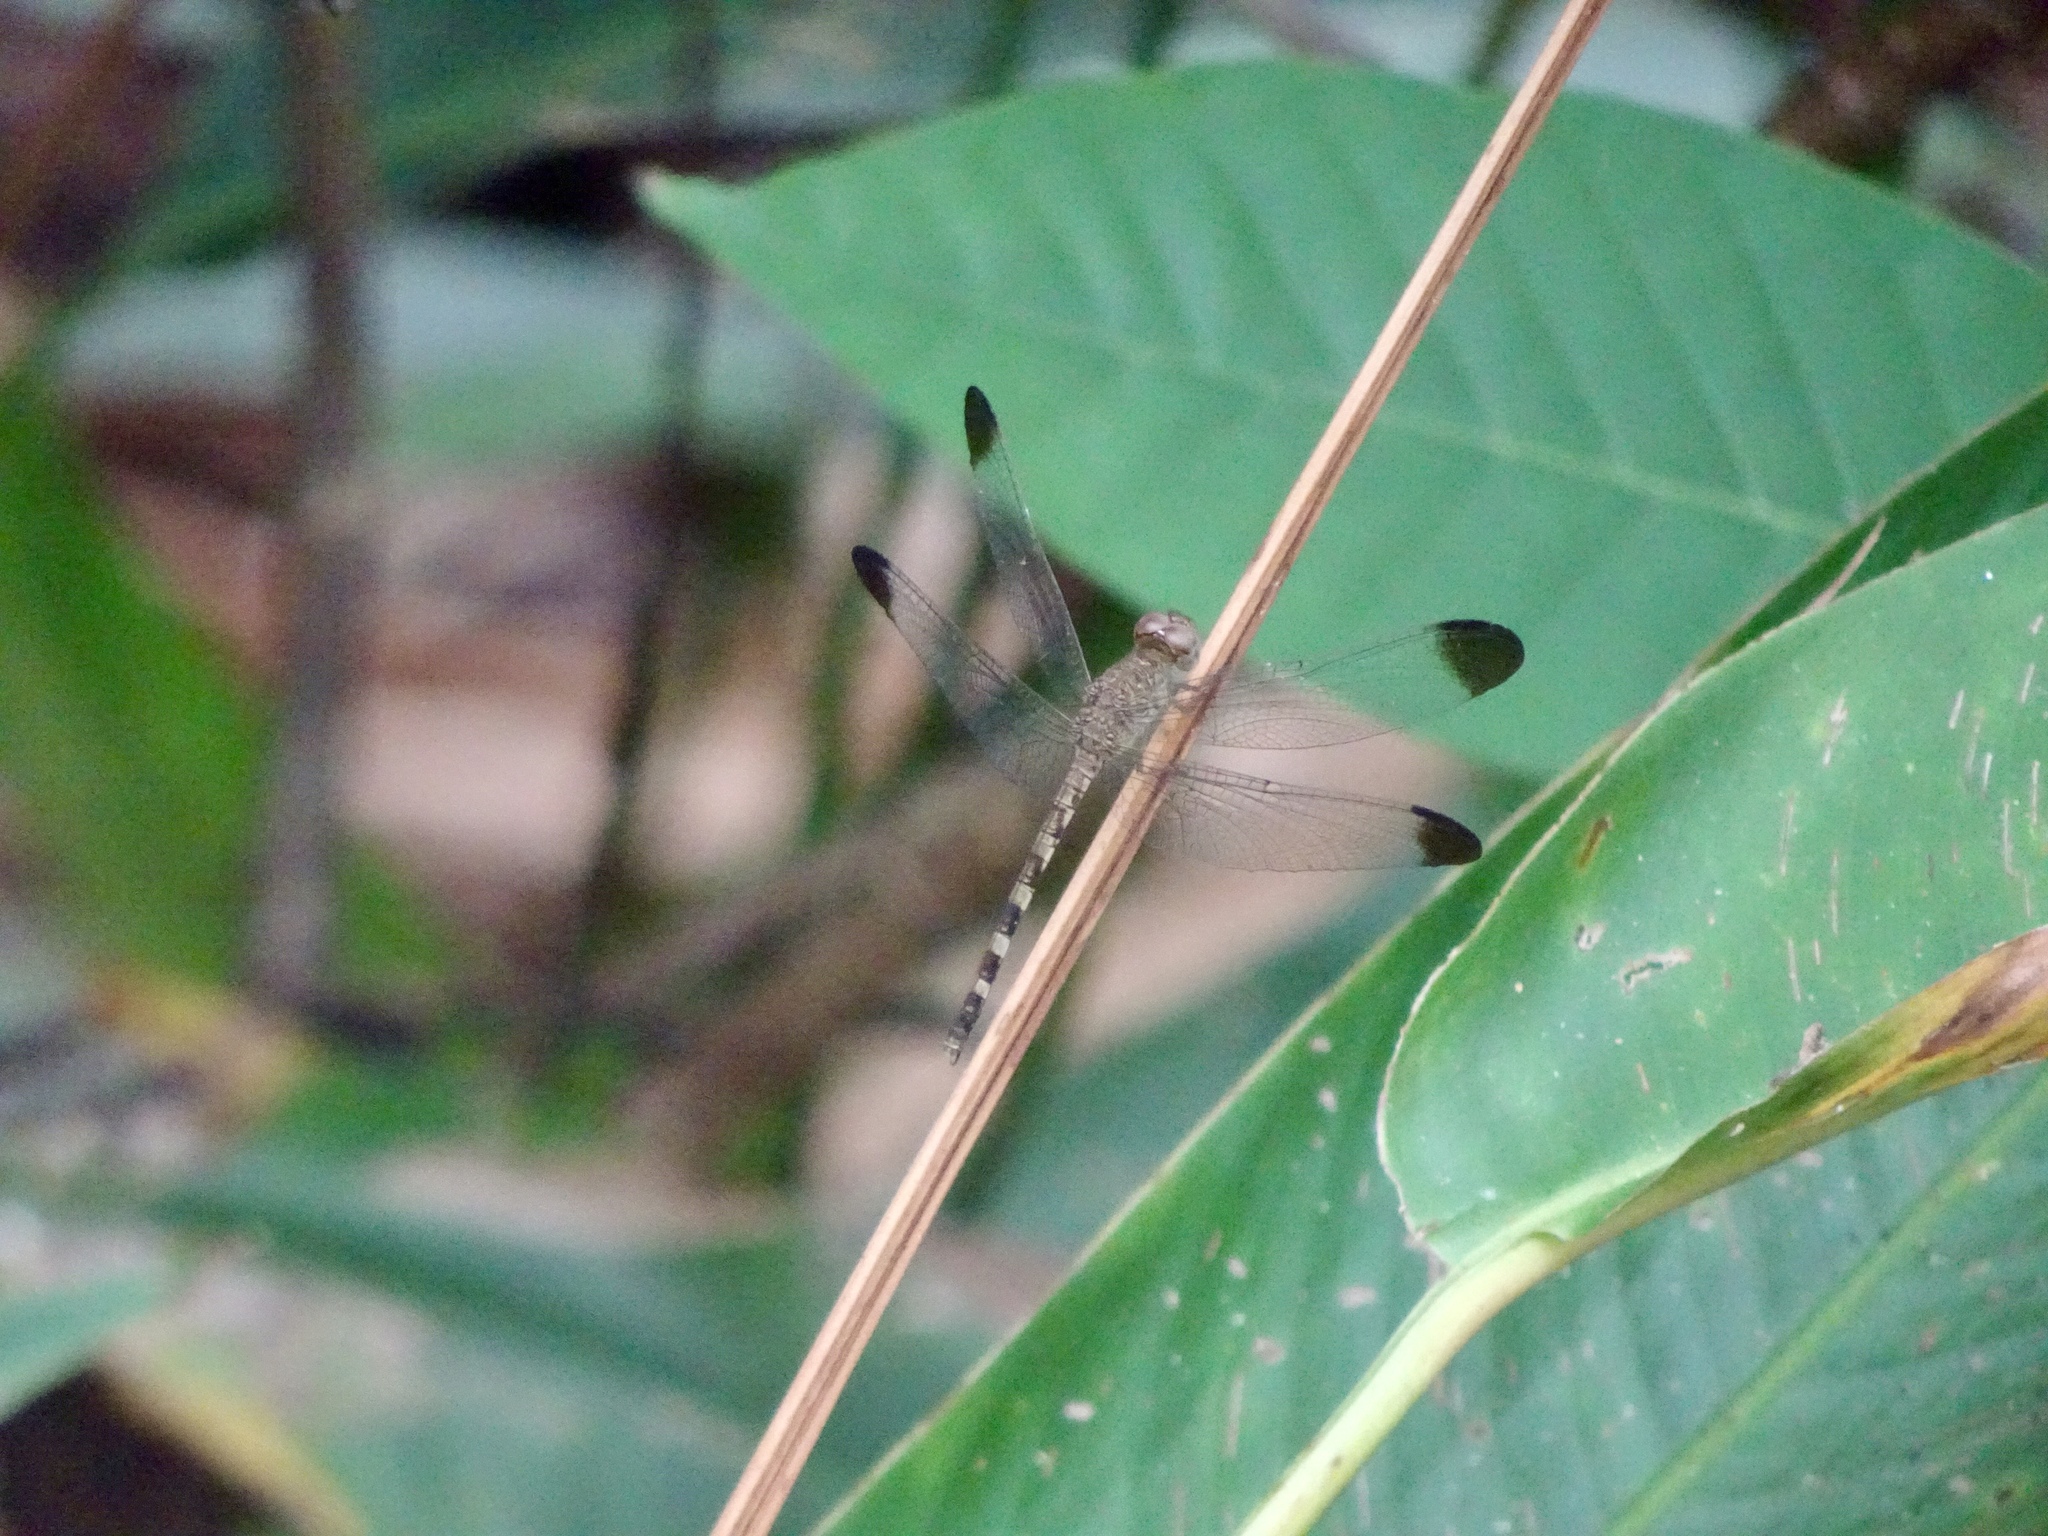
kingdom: Animalia
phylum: Arthropoda
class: Insecta
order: Odonata
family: Libellulidae
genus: Uracis
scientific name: Uracis imbuta
